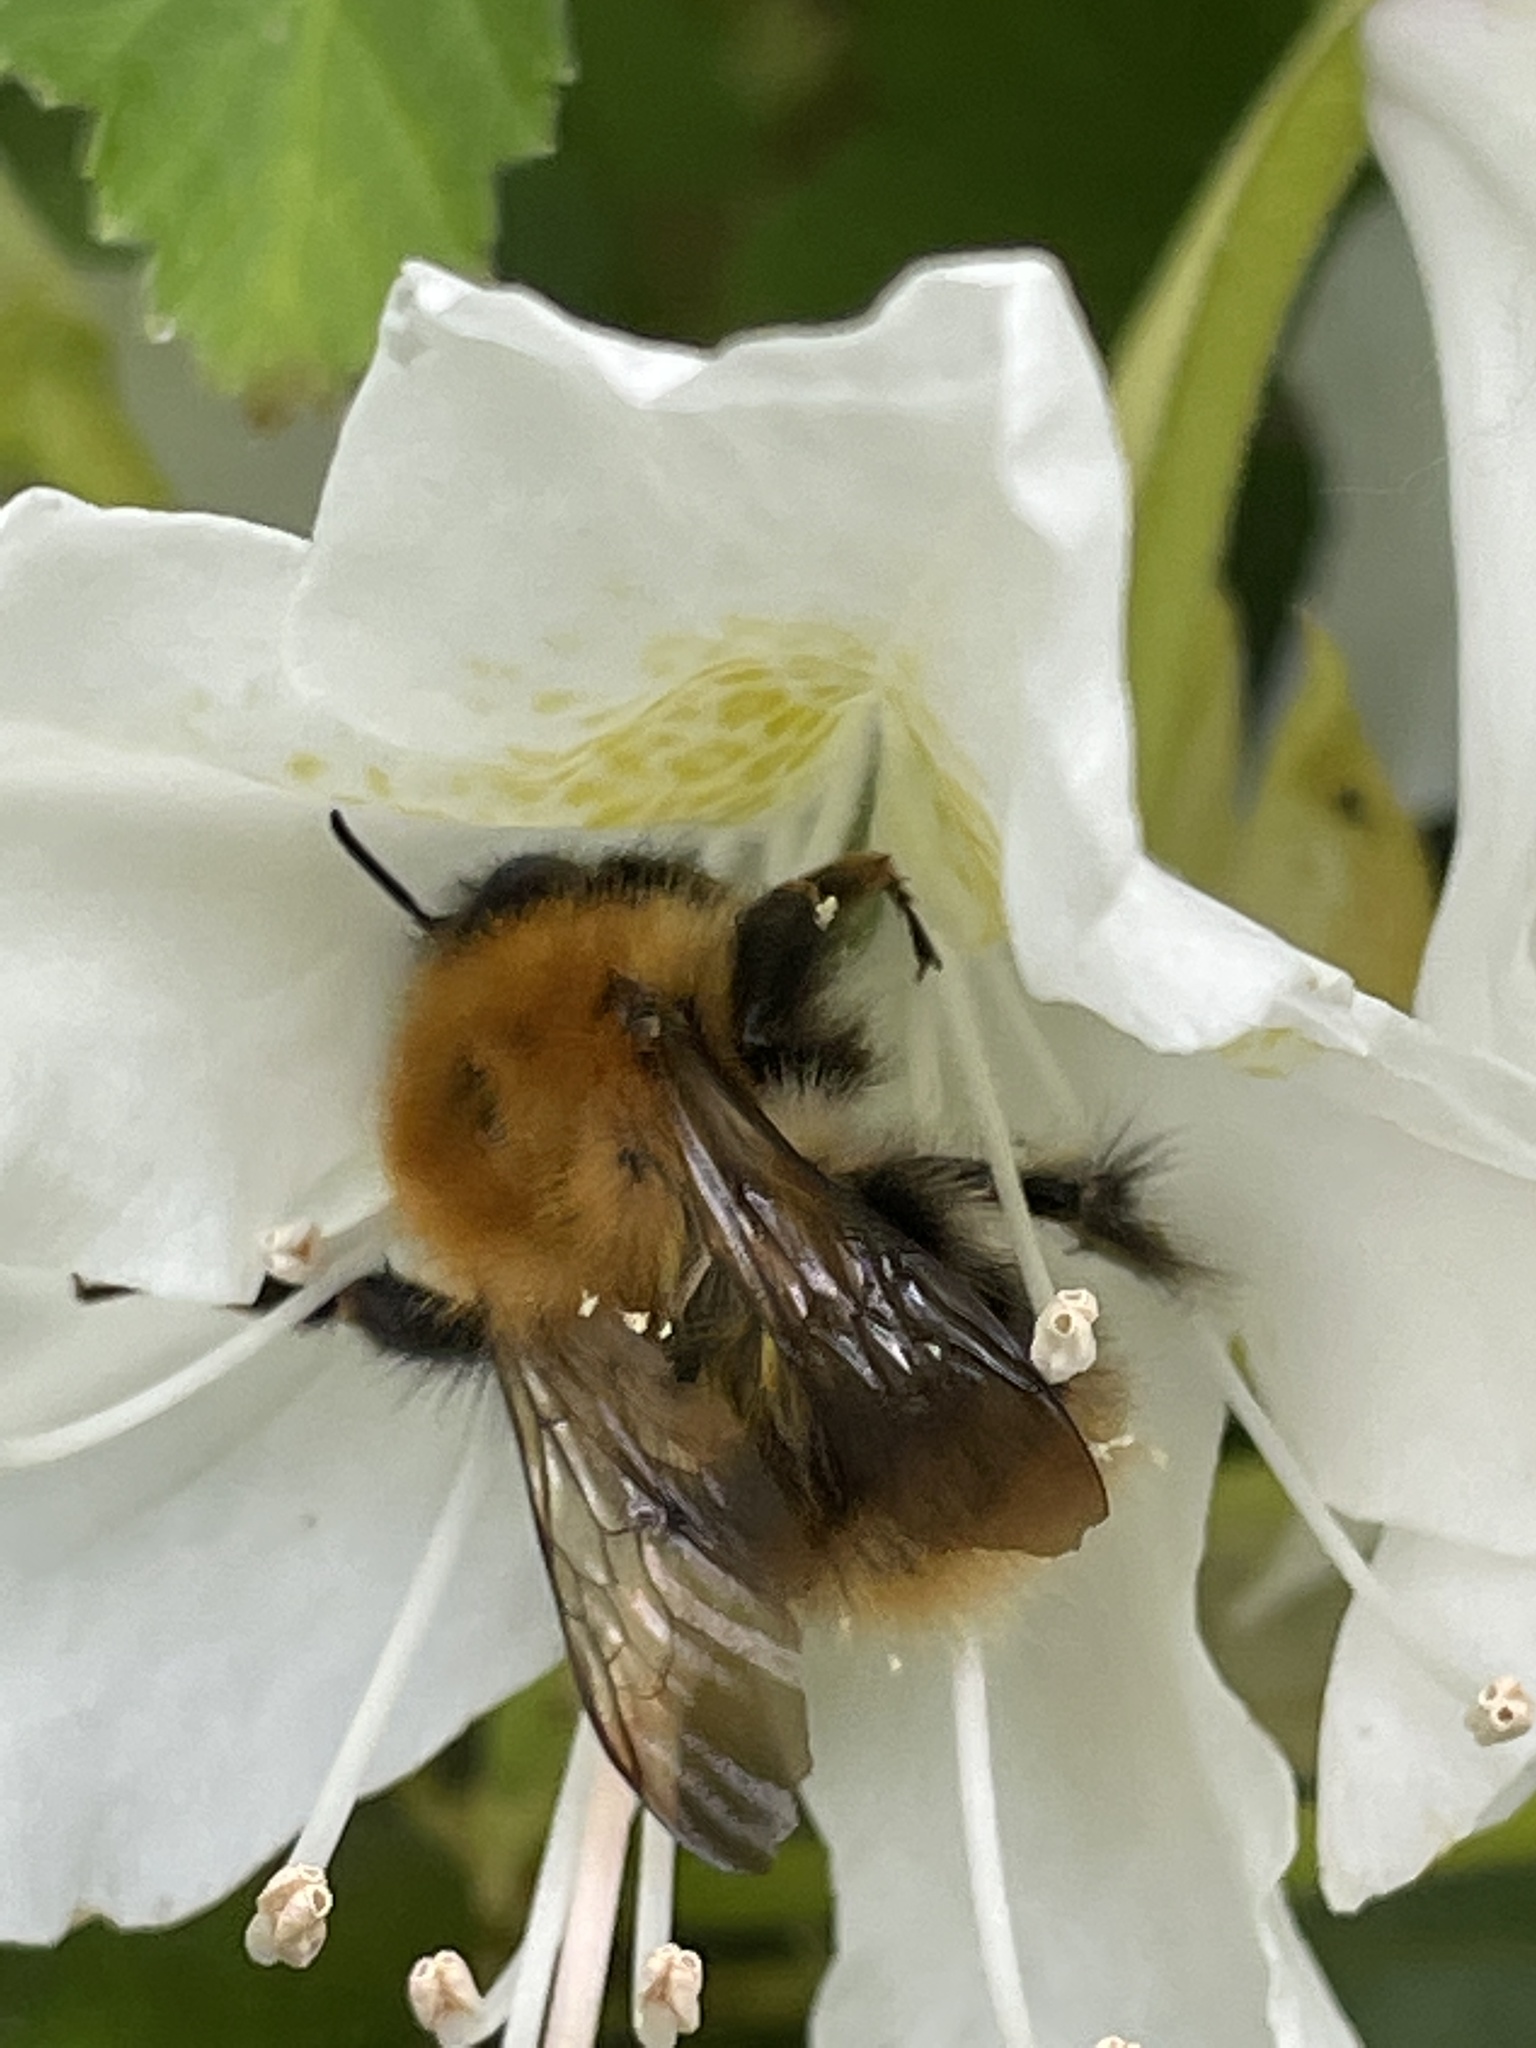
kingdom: Animalia
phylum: Arthropoda
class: Insecta
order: Hymenoptera
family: Apidae
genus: Bombus
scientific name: Bombus pascuorum
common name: Common carder bee
